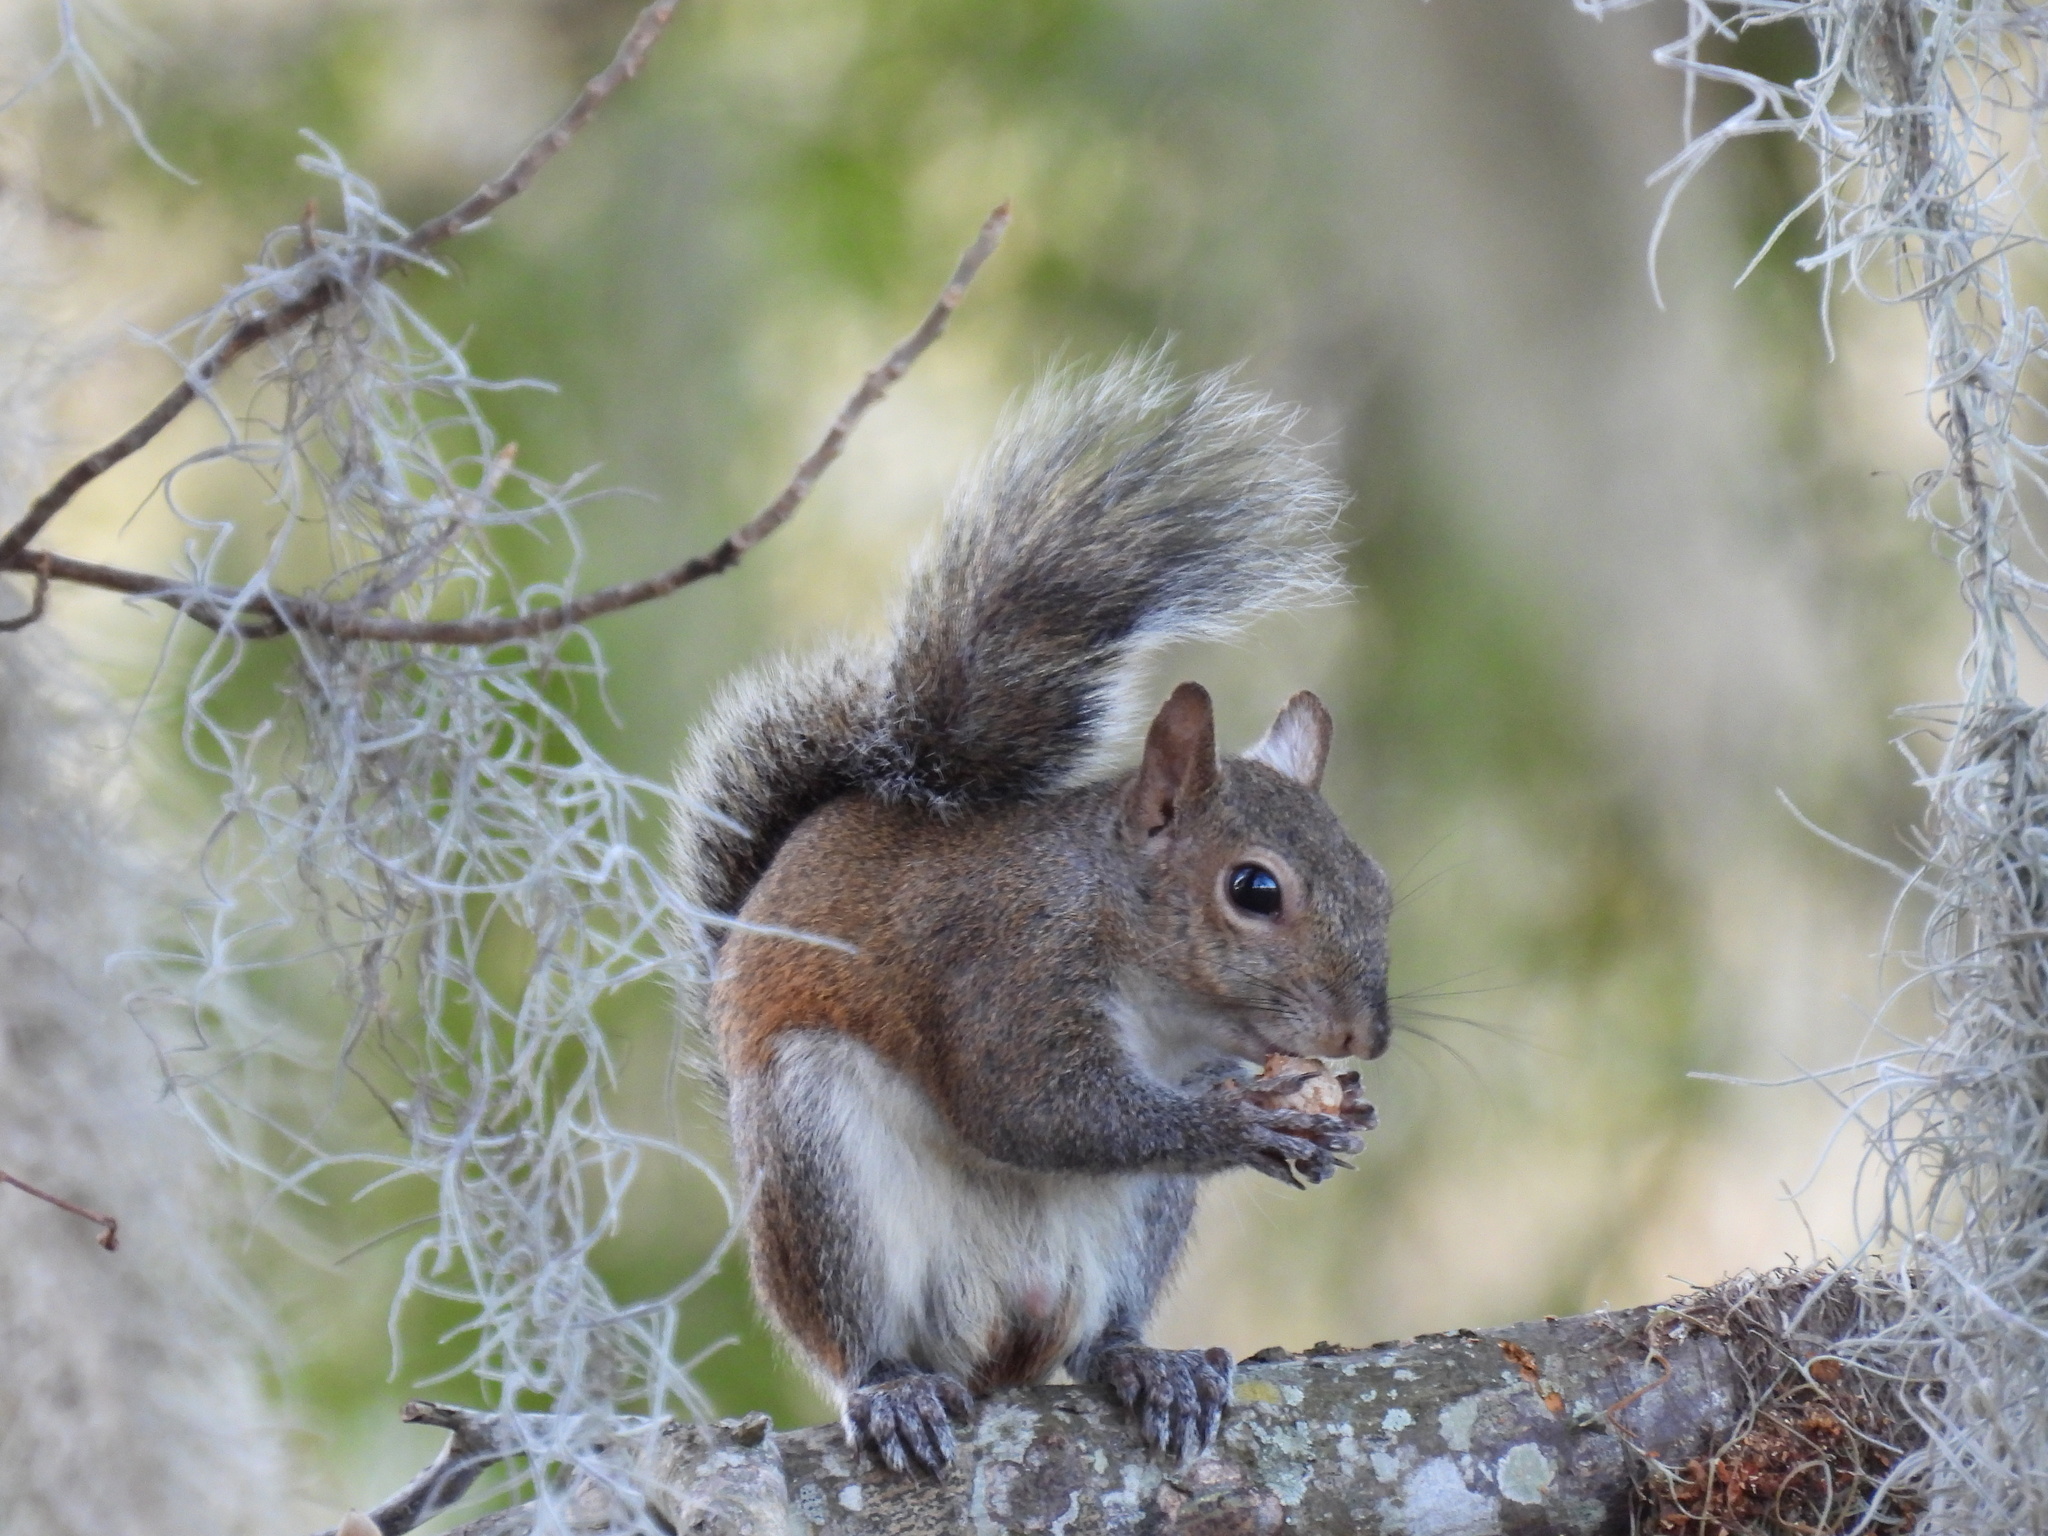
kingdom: Animalia
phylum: Chordata
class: Mammalia
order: Rodentia
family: Sciuridae
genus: Sciurus
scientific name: Sciurus carolinensis
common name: Eastern gray squirrel
